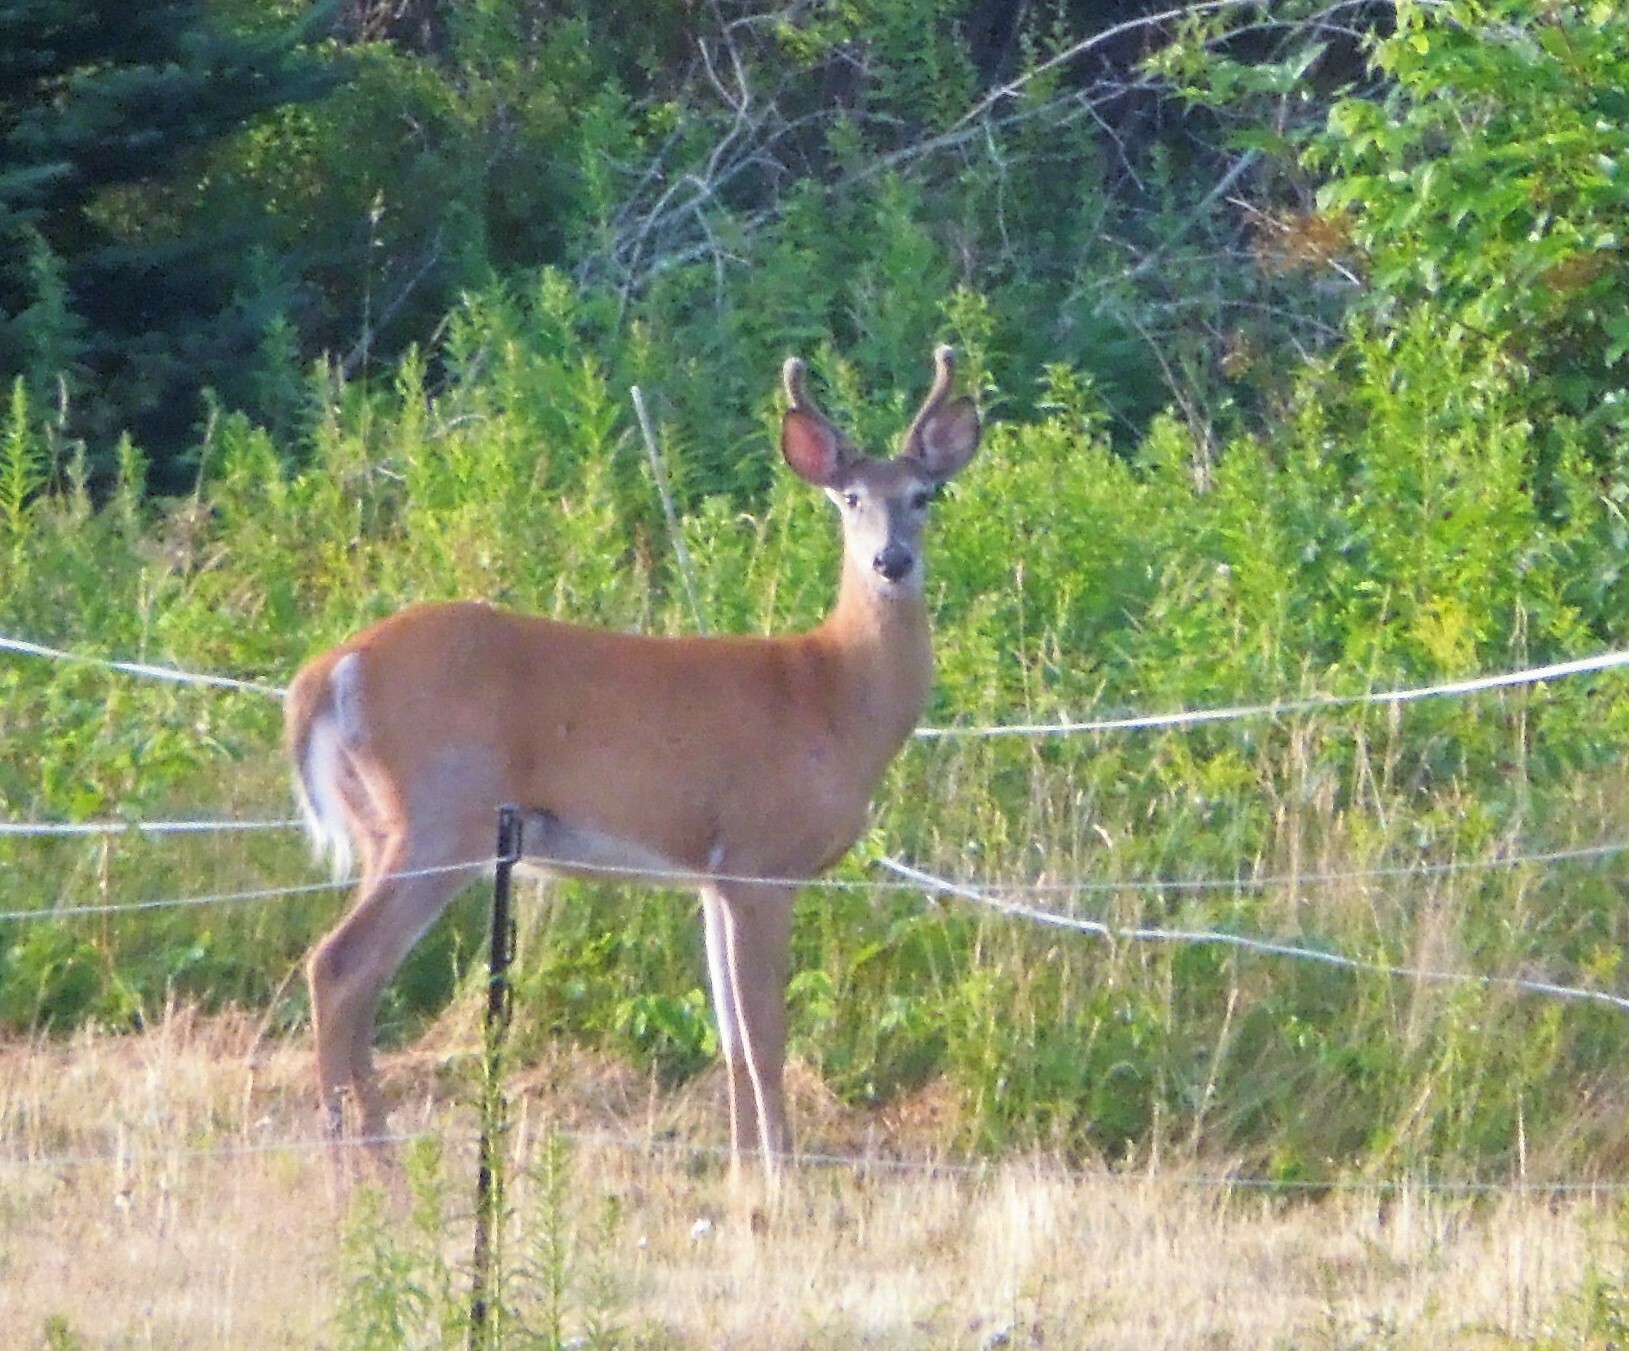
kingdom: Animalia
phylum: Chordata
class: Mammalia
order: Artiodactyla
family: Cervidae
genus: Odocoileus
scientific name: Odocoileus virginianus
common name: White-tailed deer
